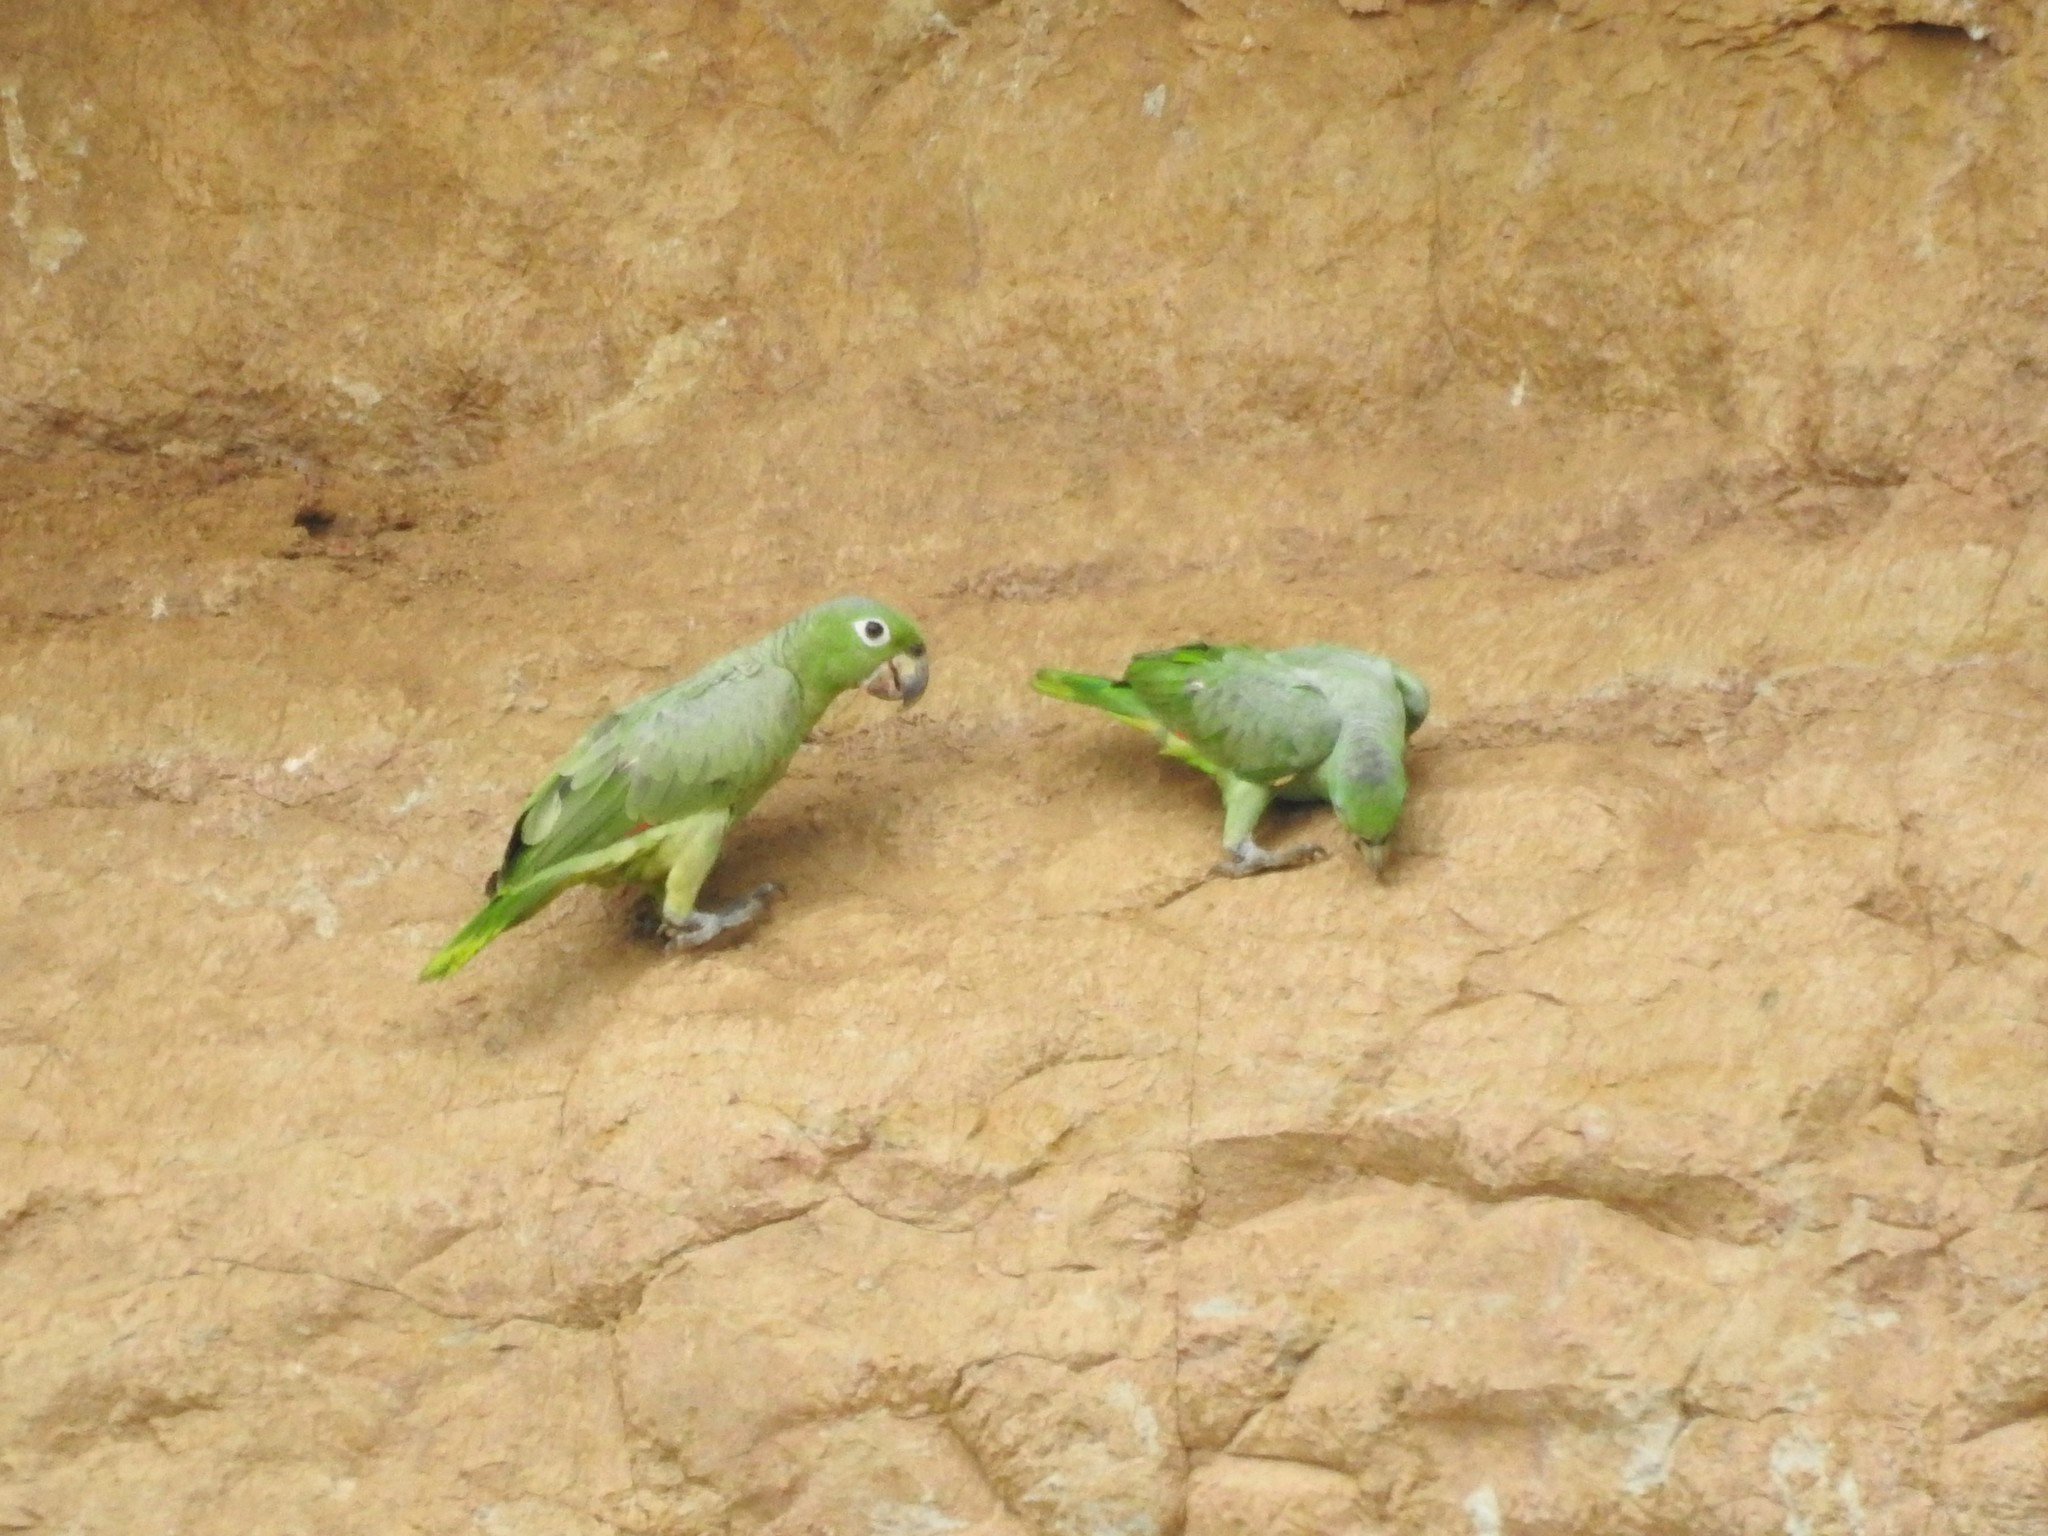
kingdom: Animalia
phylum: Chordata
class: Aves
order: Psittaciformes
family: Psittacidae
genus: Amazona
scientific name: Amazona farinosa
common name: Mealy parrot
